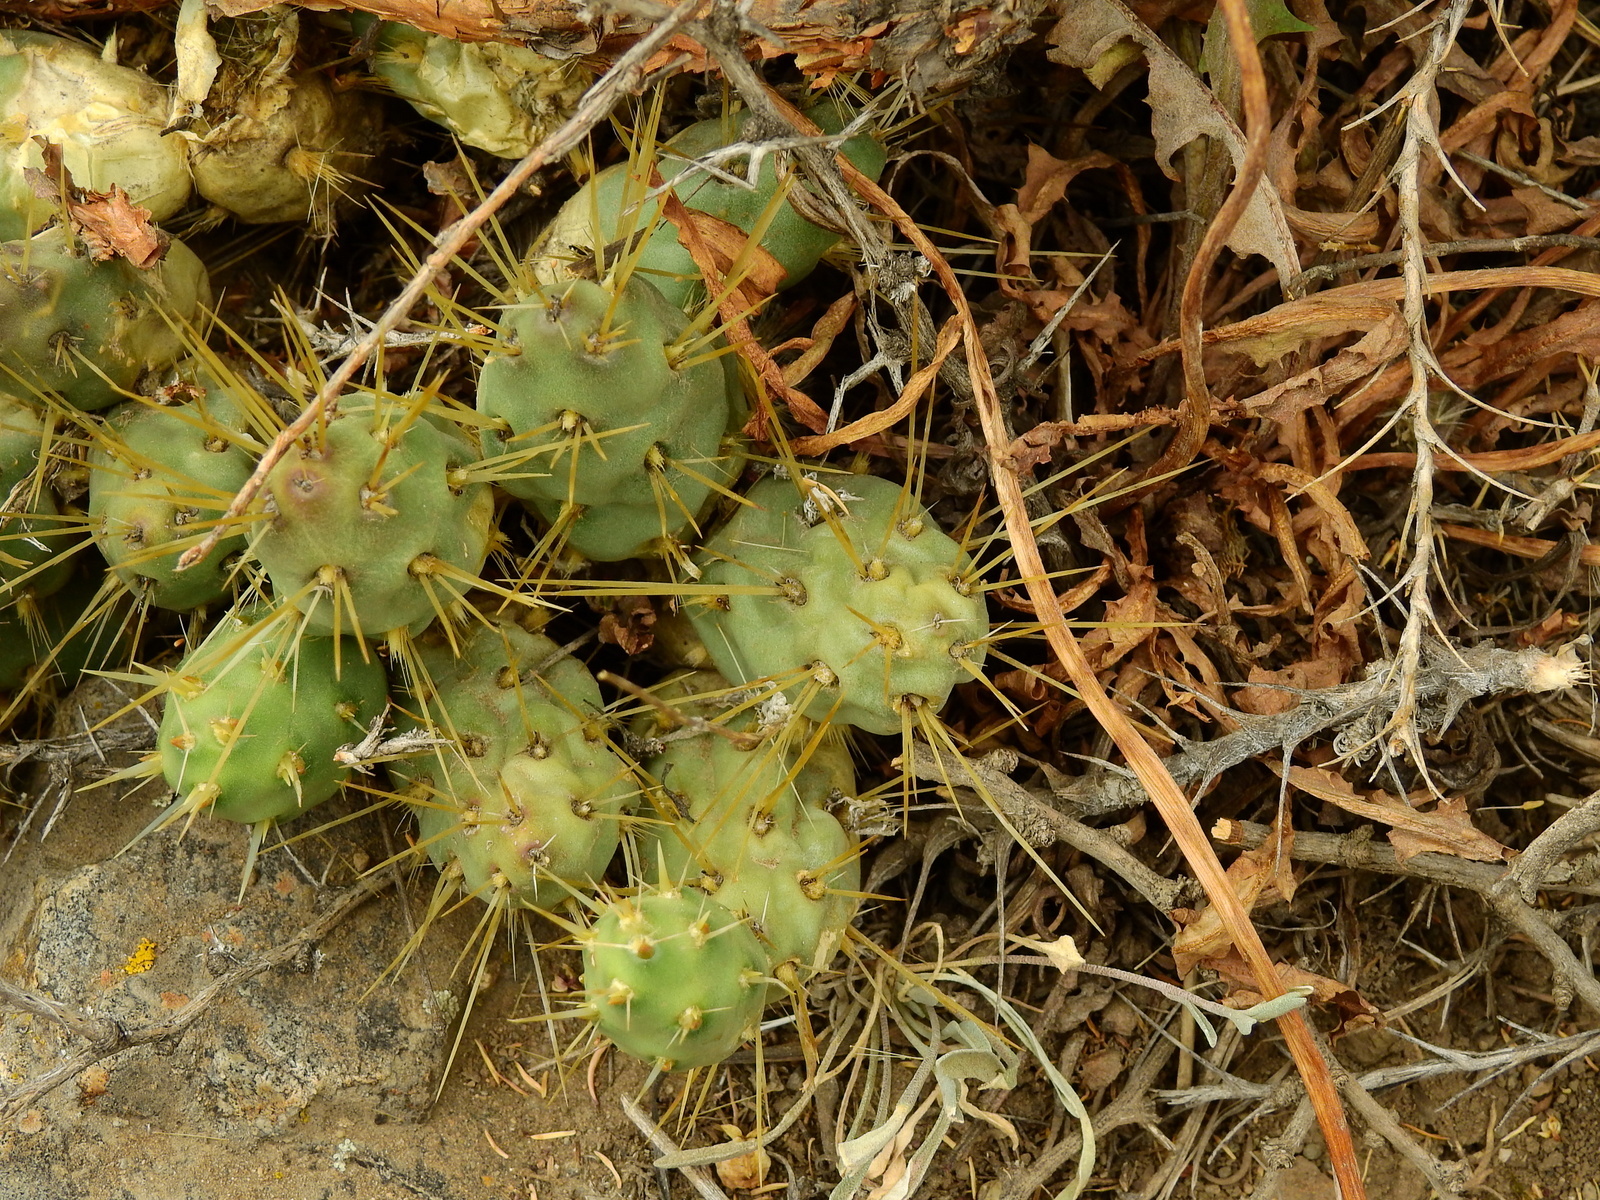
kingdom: Plantae
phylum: Tracheophyta
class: Magnoliopsida
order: Caryophyllales
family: Cactaceae
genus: Maihueniopsis
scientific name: Maihueniopsis ovata
